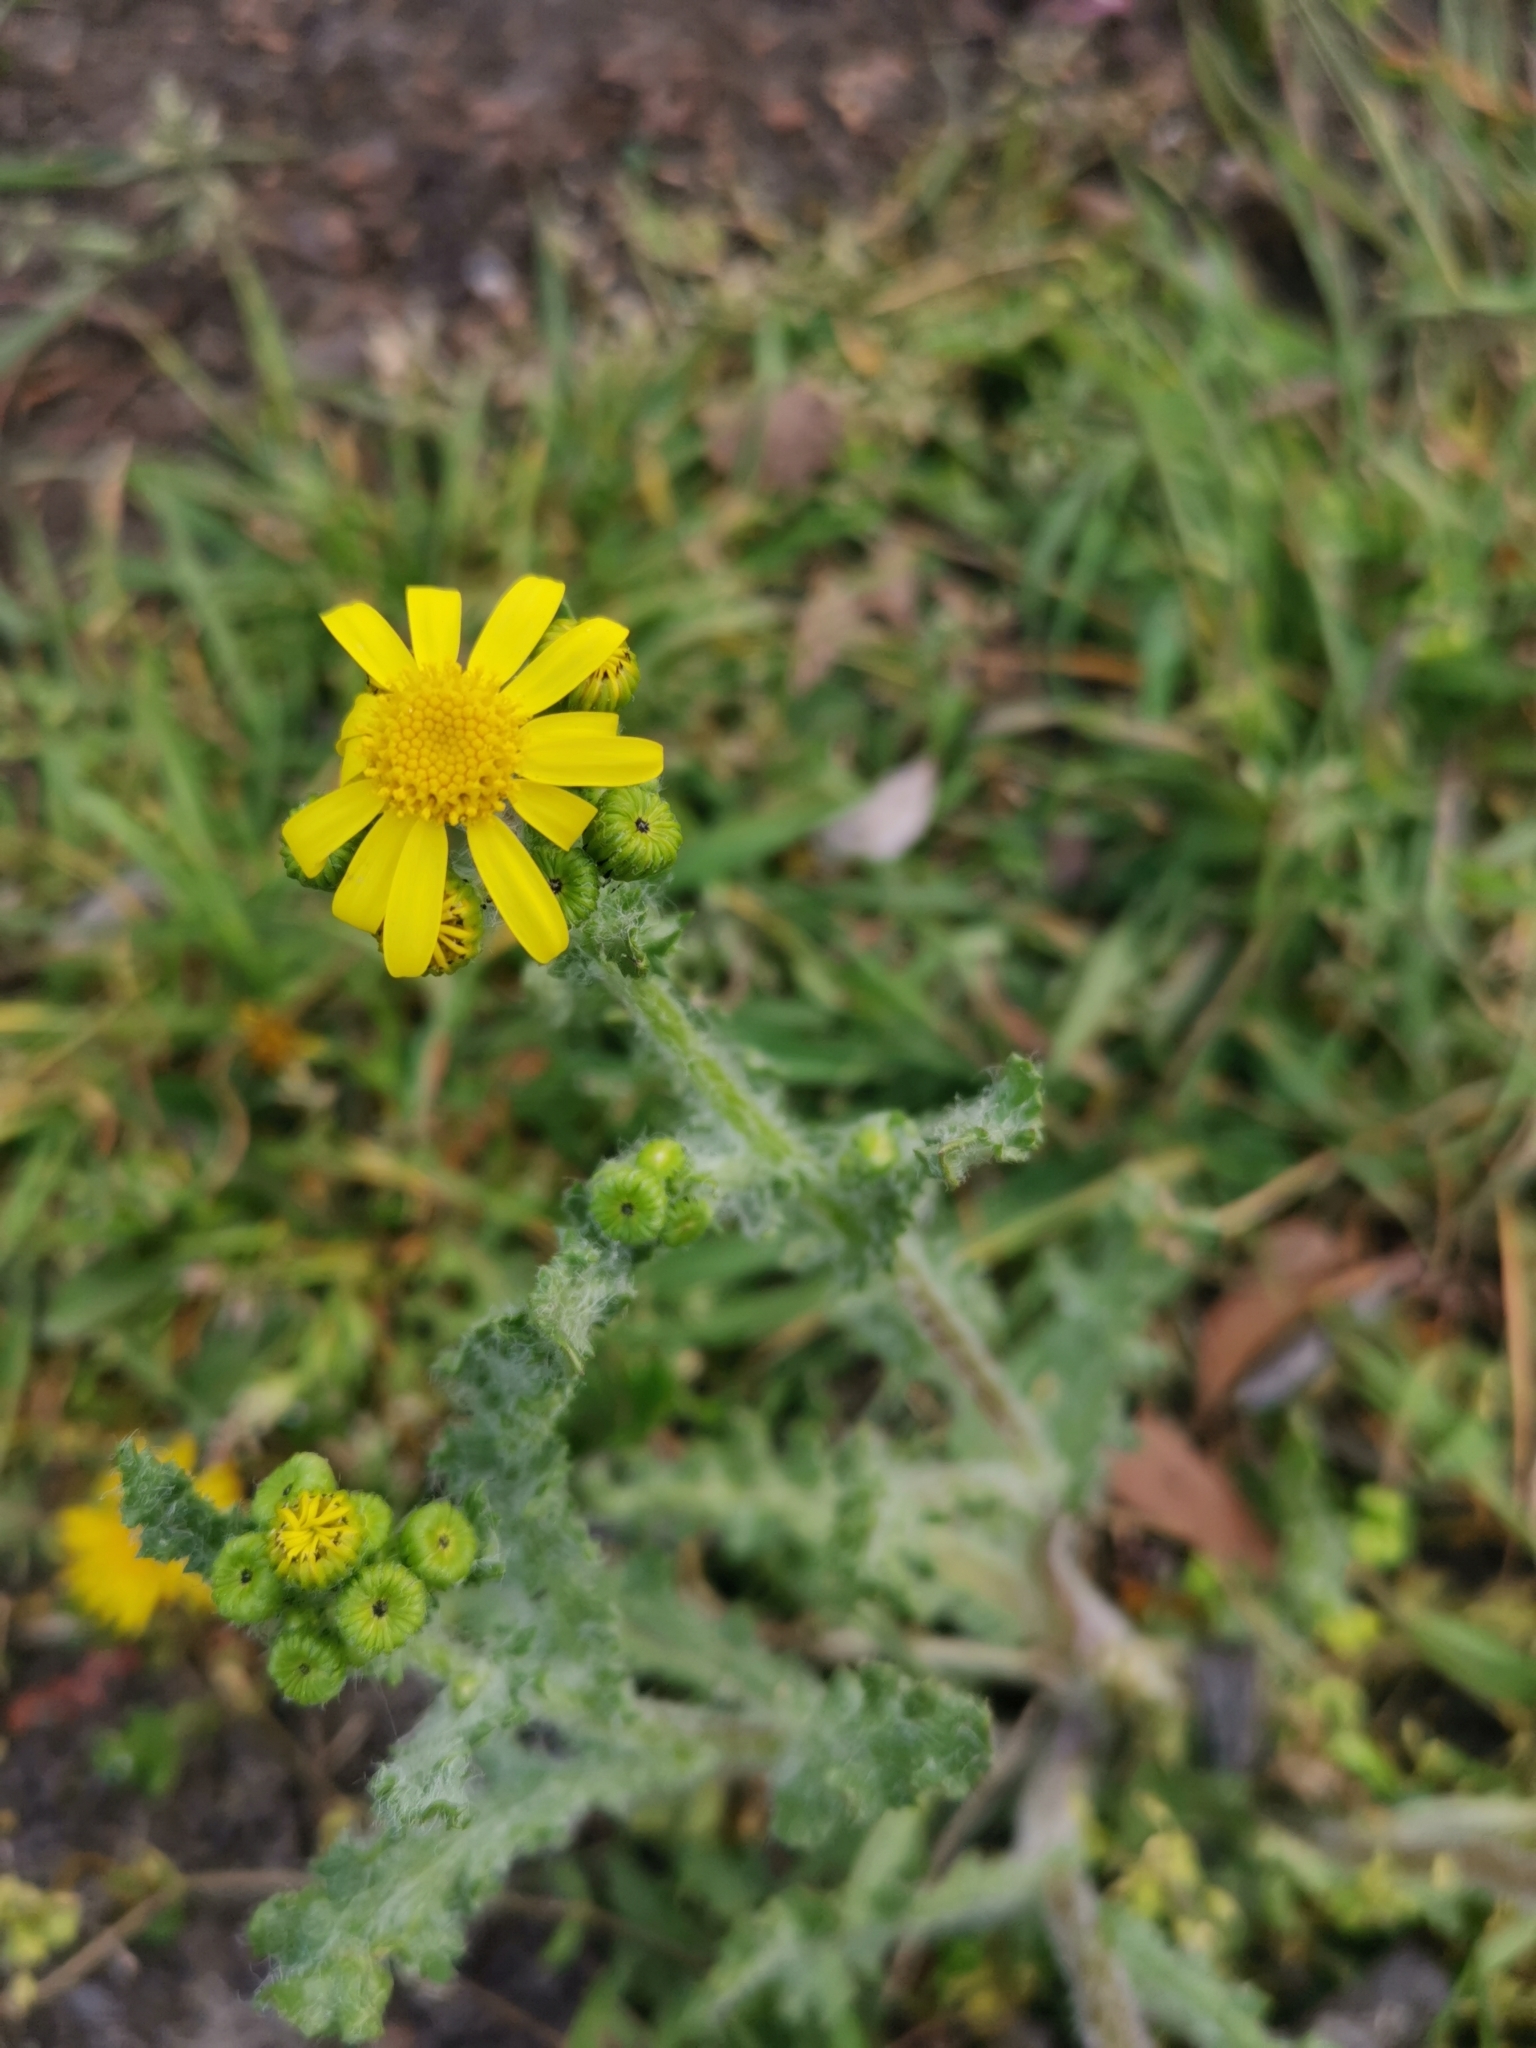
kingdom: Plantae
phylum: Tracheophyta
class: Magnoliopsida
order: Asterales
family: Asteraceae
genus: Senecio
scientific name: Senecio vernalis
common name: Eastern groundsel
